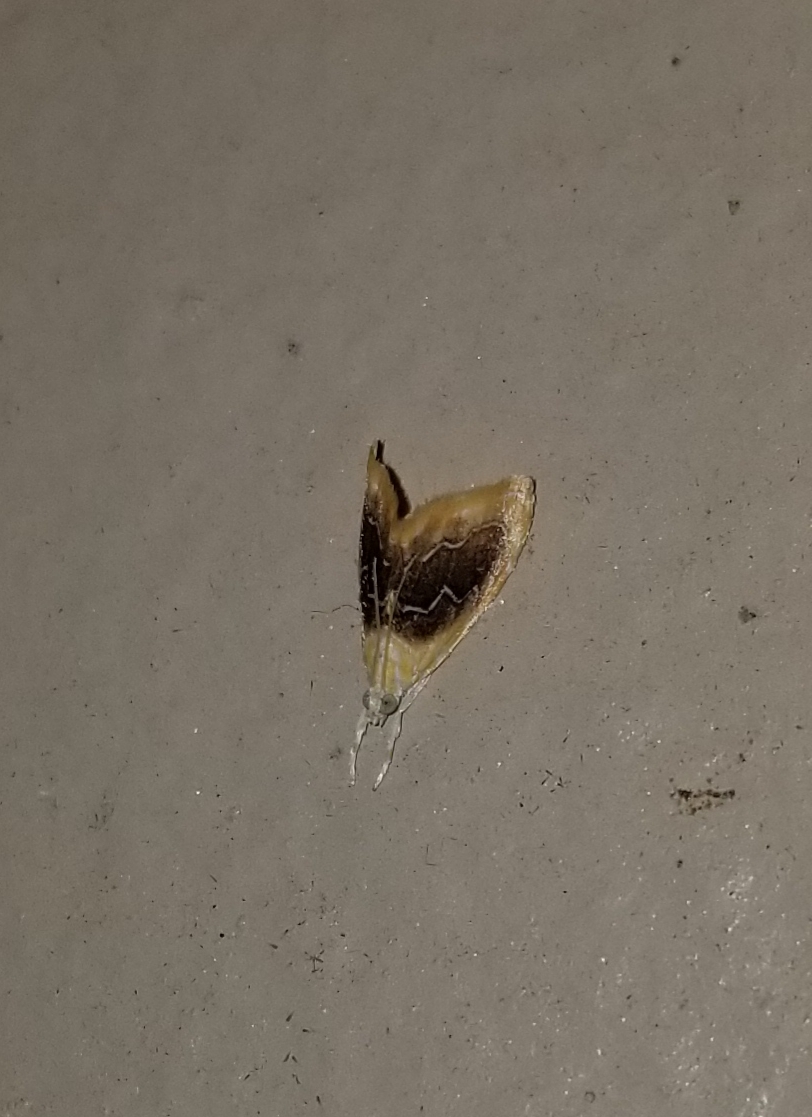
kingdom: Animalia
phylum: Arthropoda
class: Insecta
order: Lepidoptera
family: Crambidae
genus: Glaphyria
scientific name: Glaphyria fulminalis
